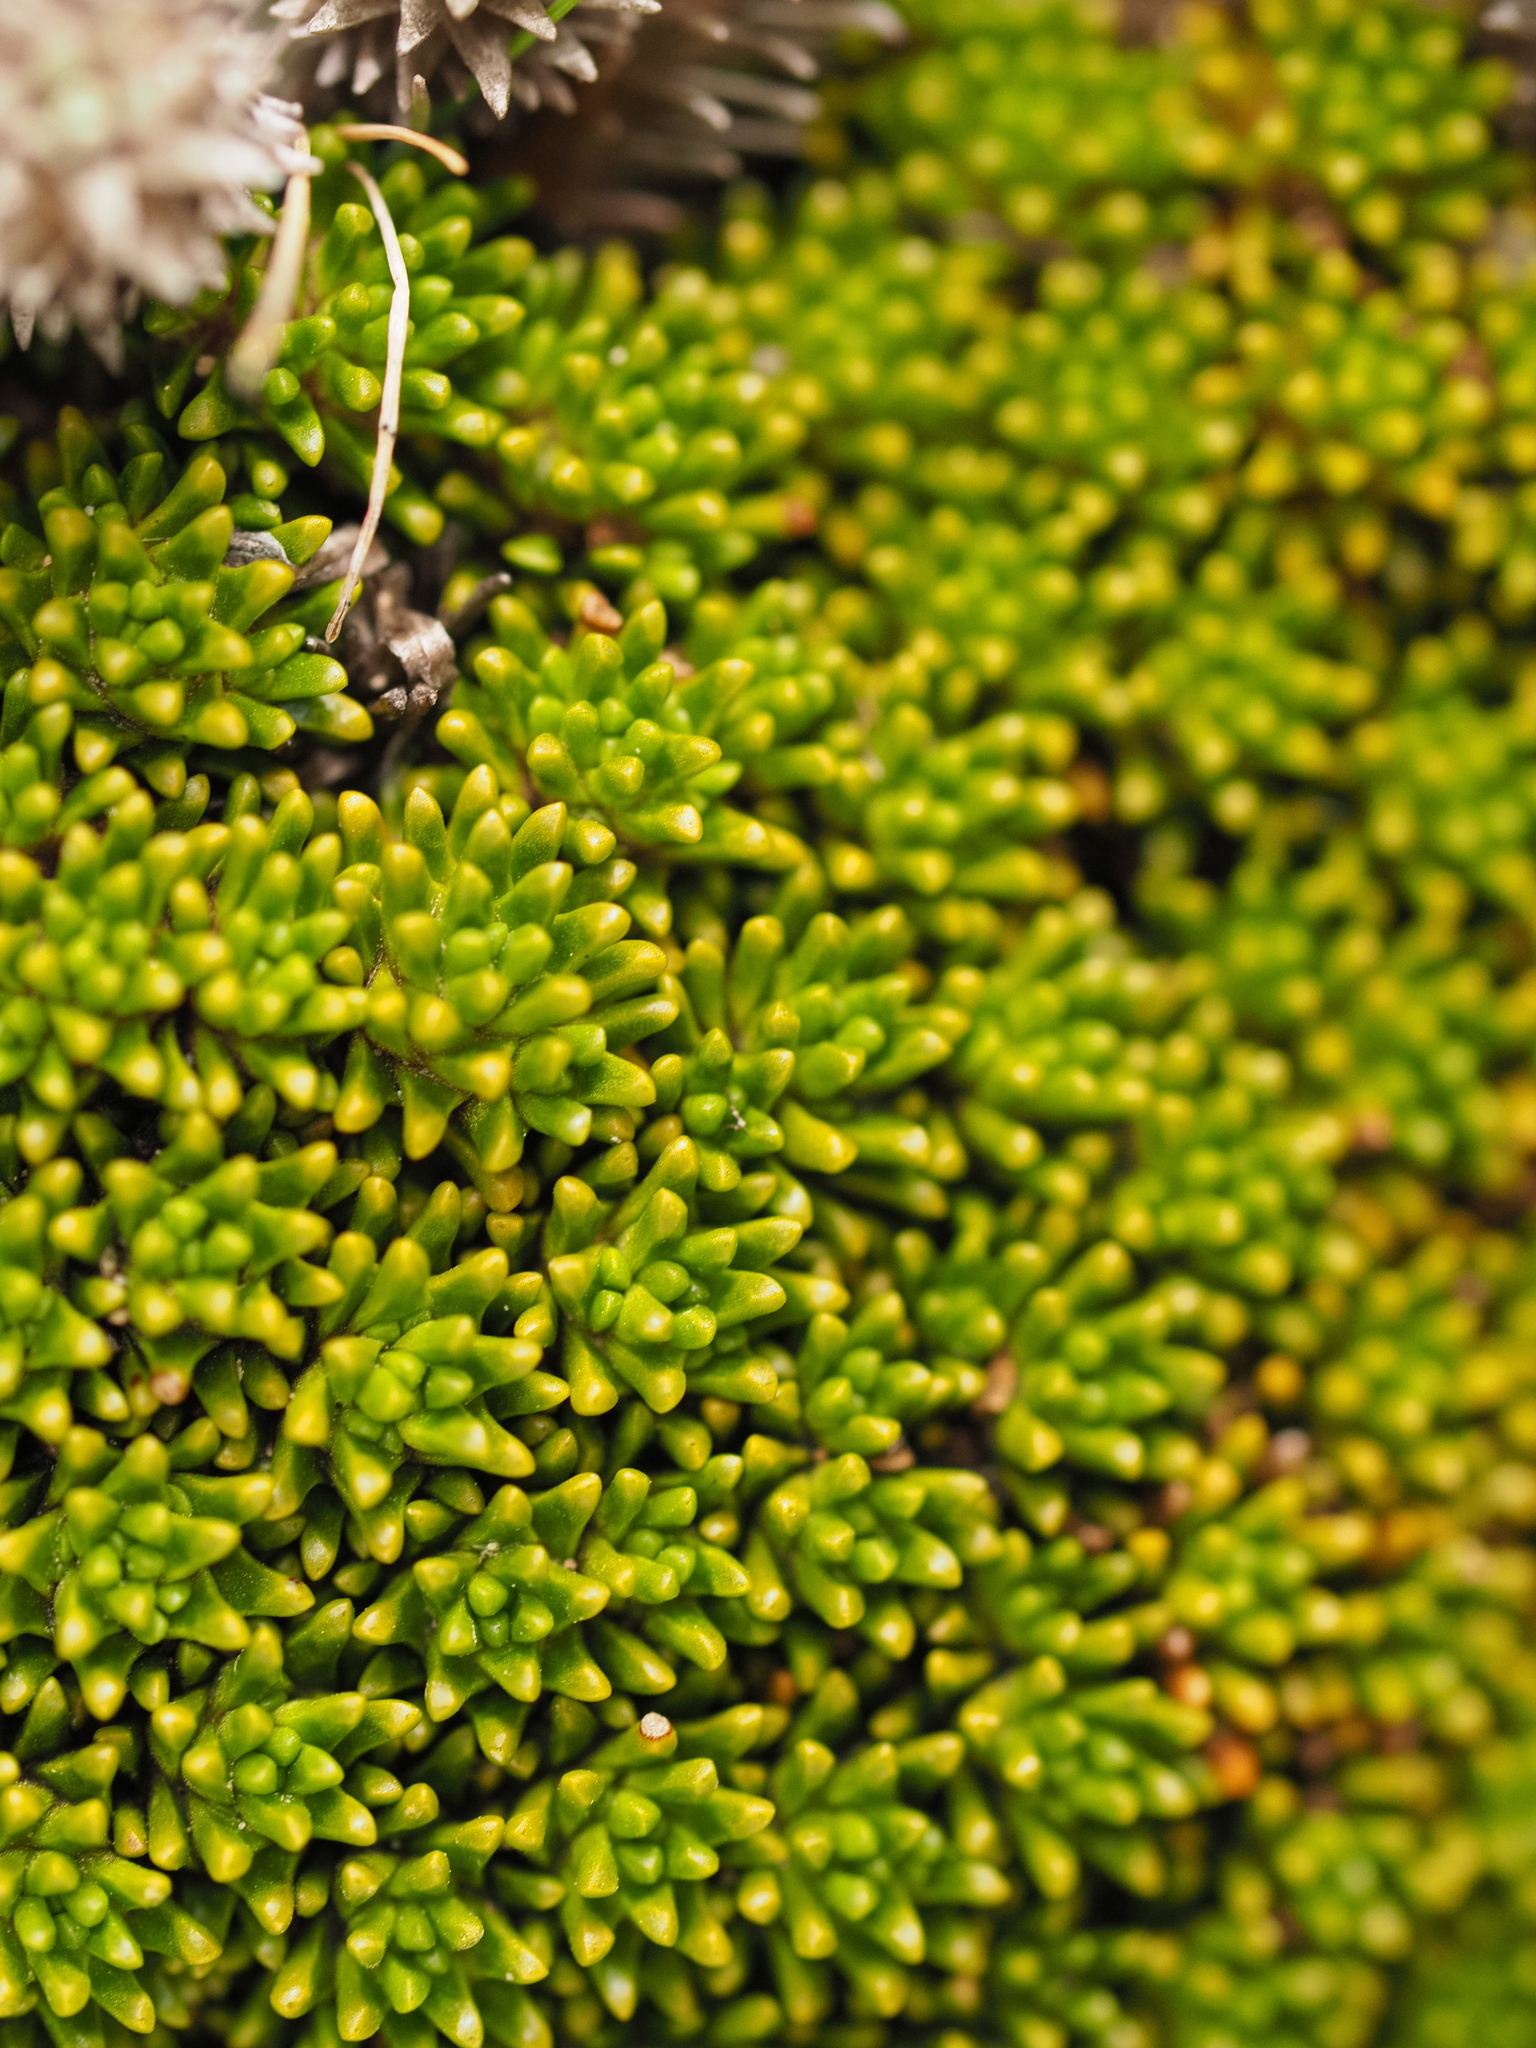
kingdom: Plantae
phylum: Tracheophyta
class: Magnoliopsida
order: Asterales
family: Stylidiaceae
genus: Phyllachne
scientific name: Phyllachne colensoi
